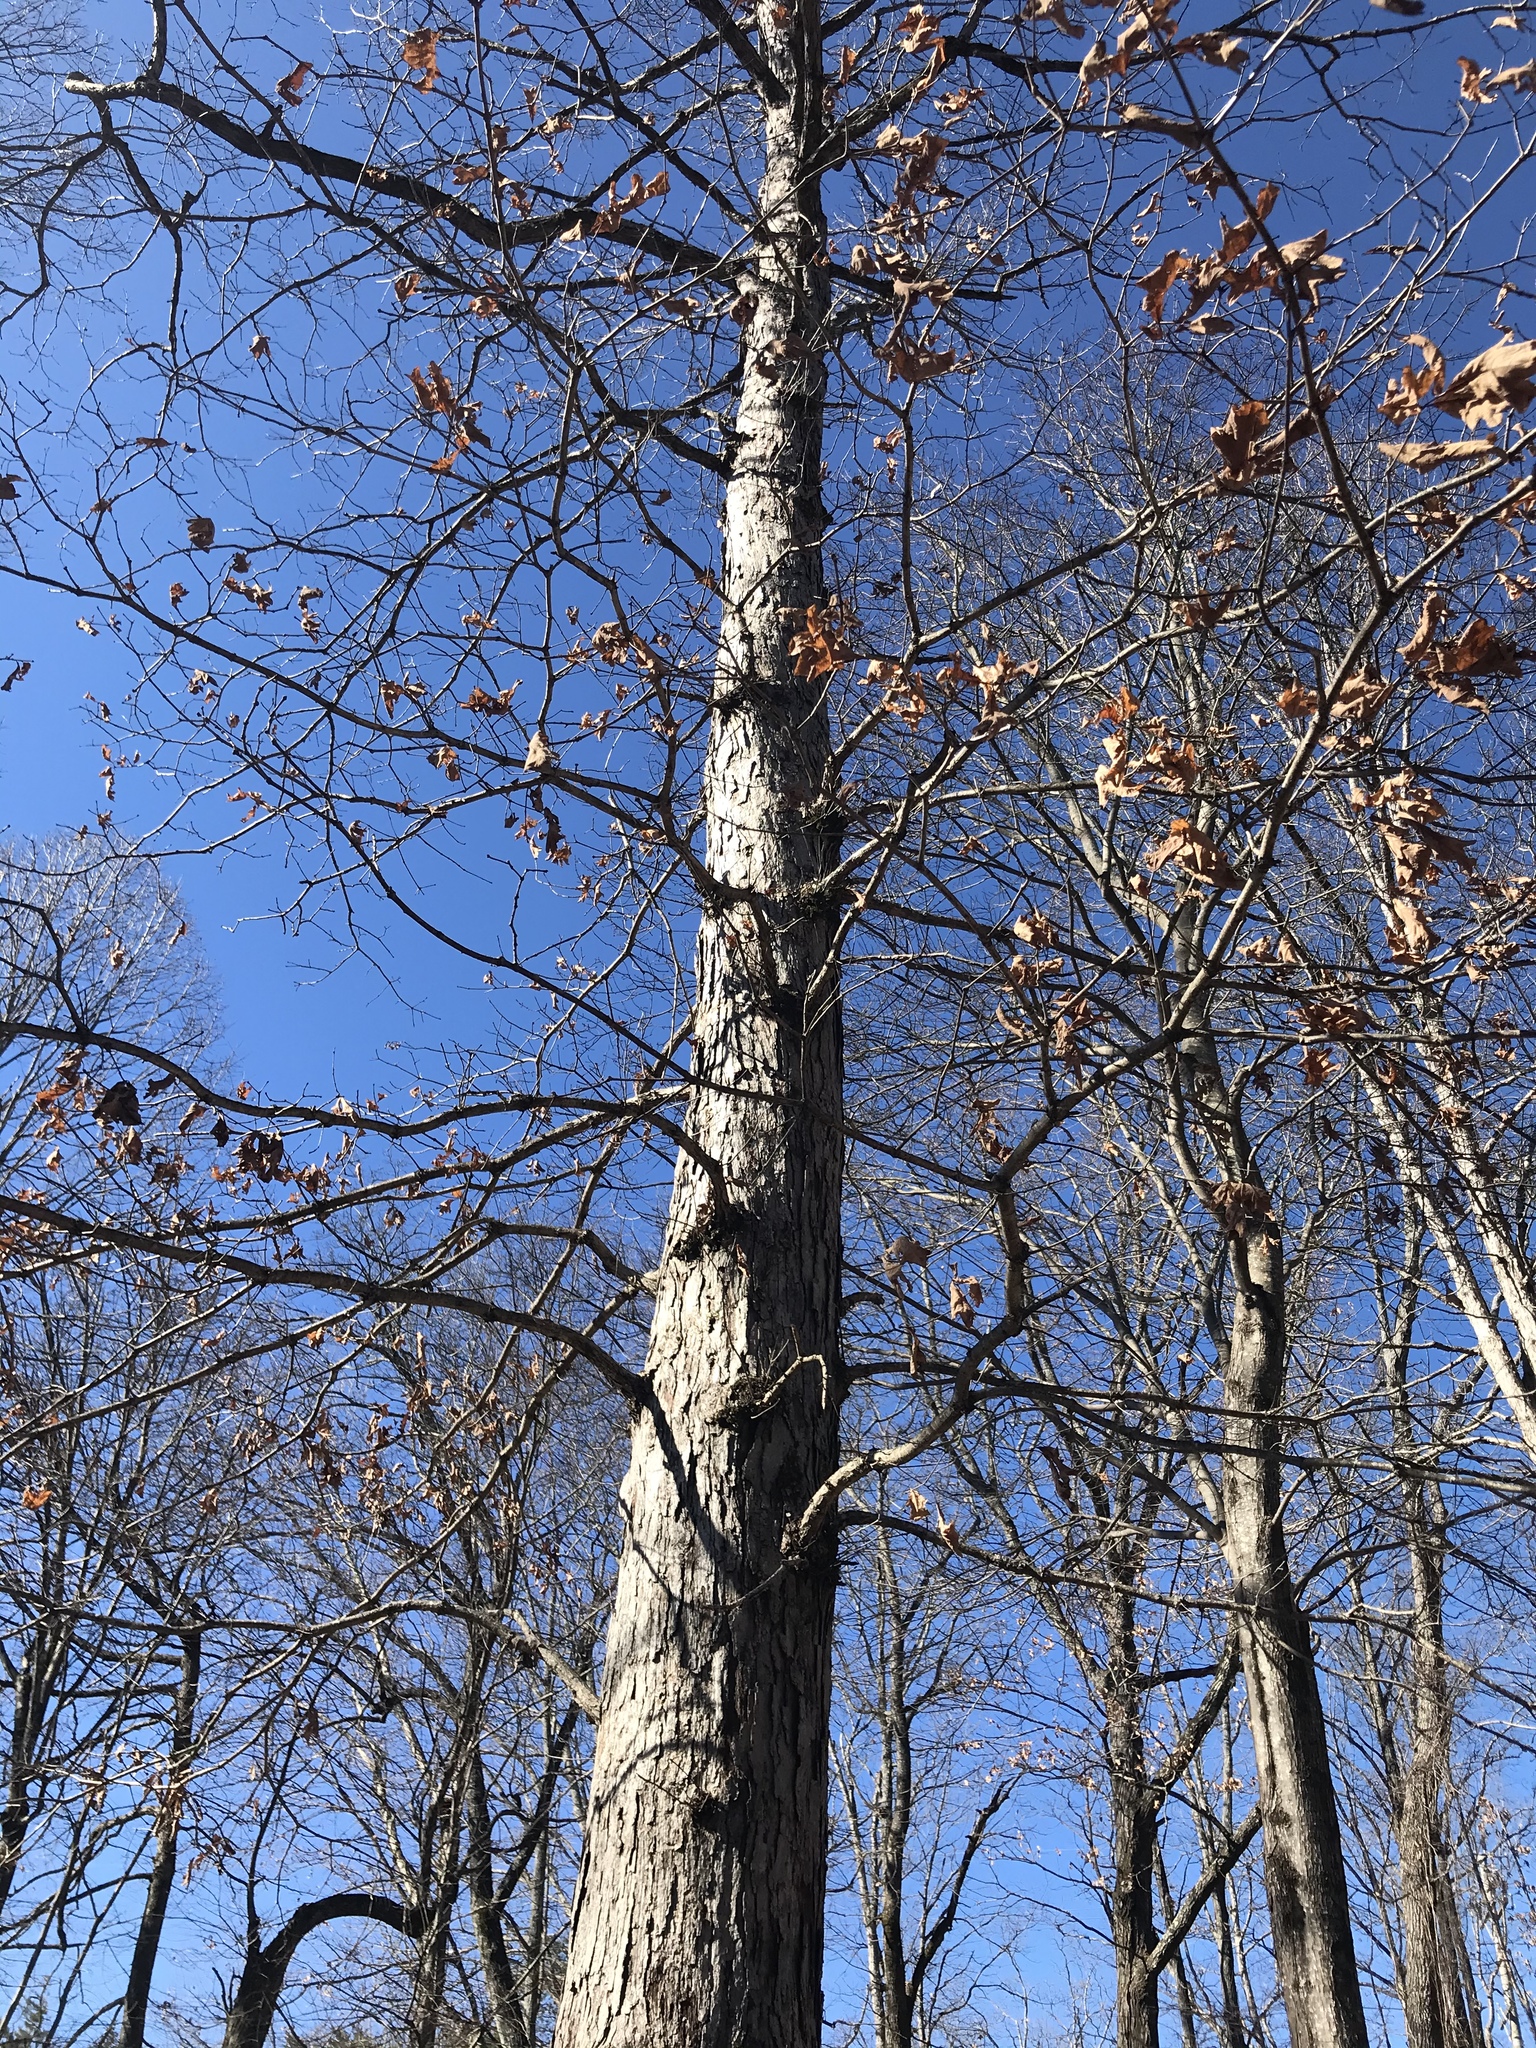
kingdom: Plantae
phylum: Tracheophyta
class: Magnoliopsida
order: Fagales
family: Fagaceae
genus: Quercus
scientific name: Quercus alba
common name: White oak
